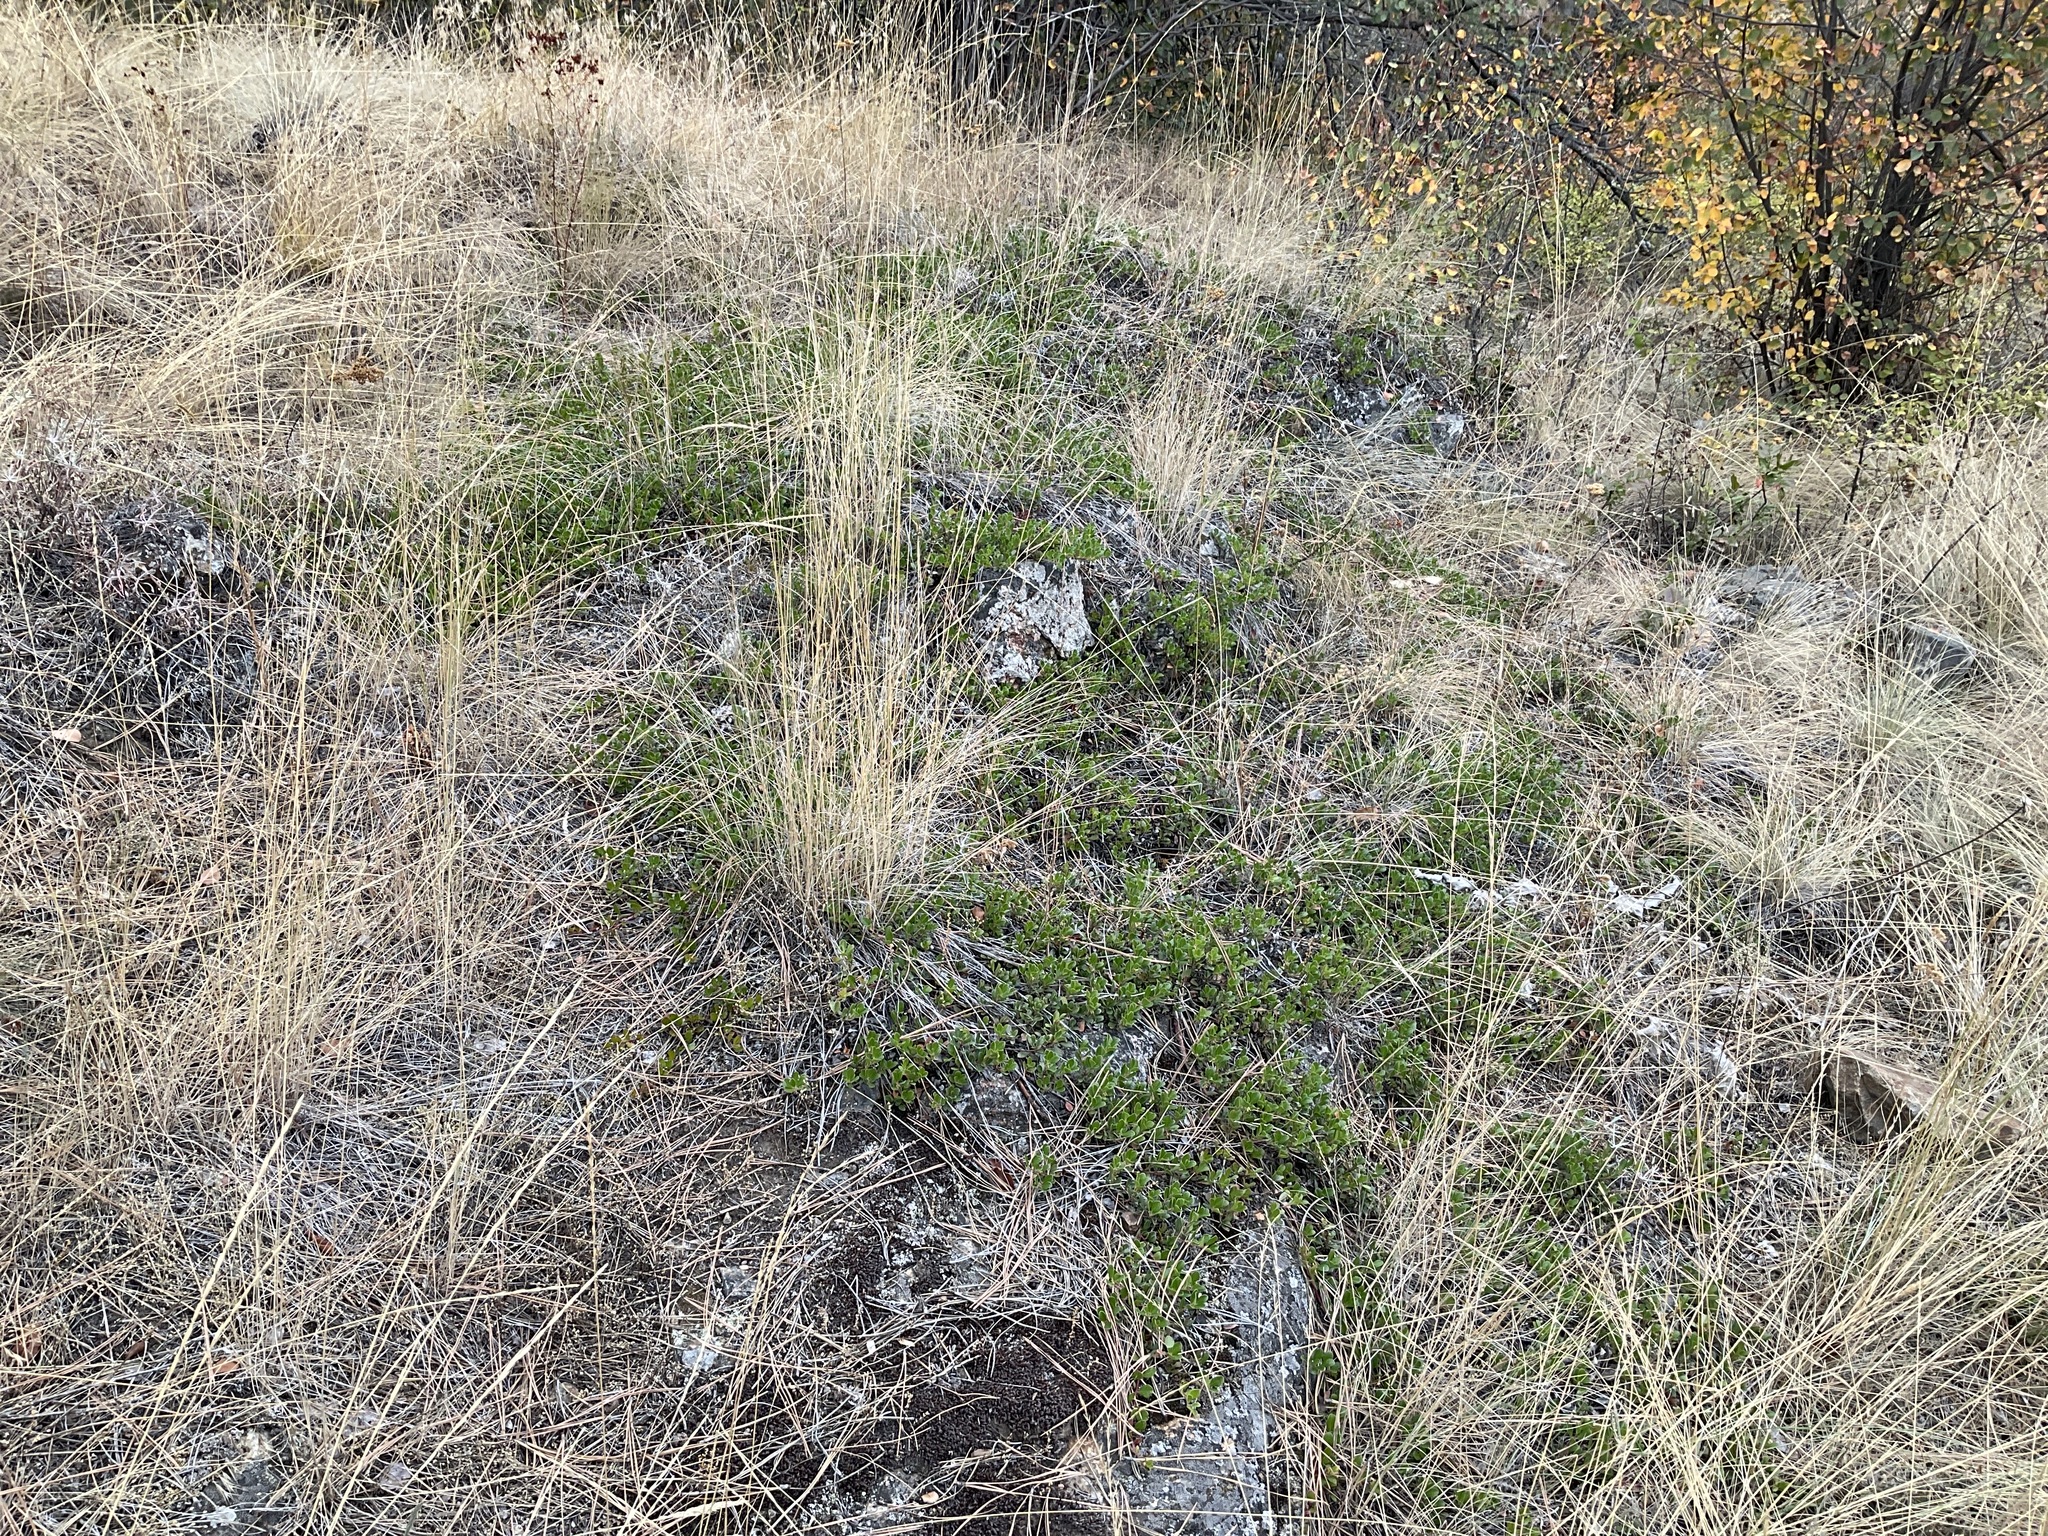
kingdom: Plantae
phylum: Tracheophyta
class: Magnoliopsida
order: Ericales
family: Ericaceae
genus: Arctostaphylos
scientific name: Arctostaphylos uva-ursi
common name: Bearberry
